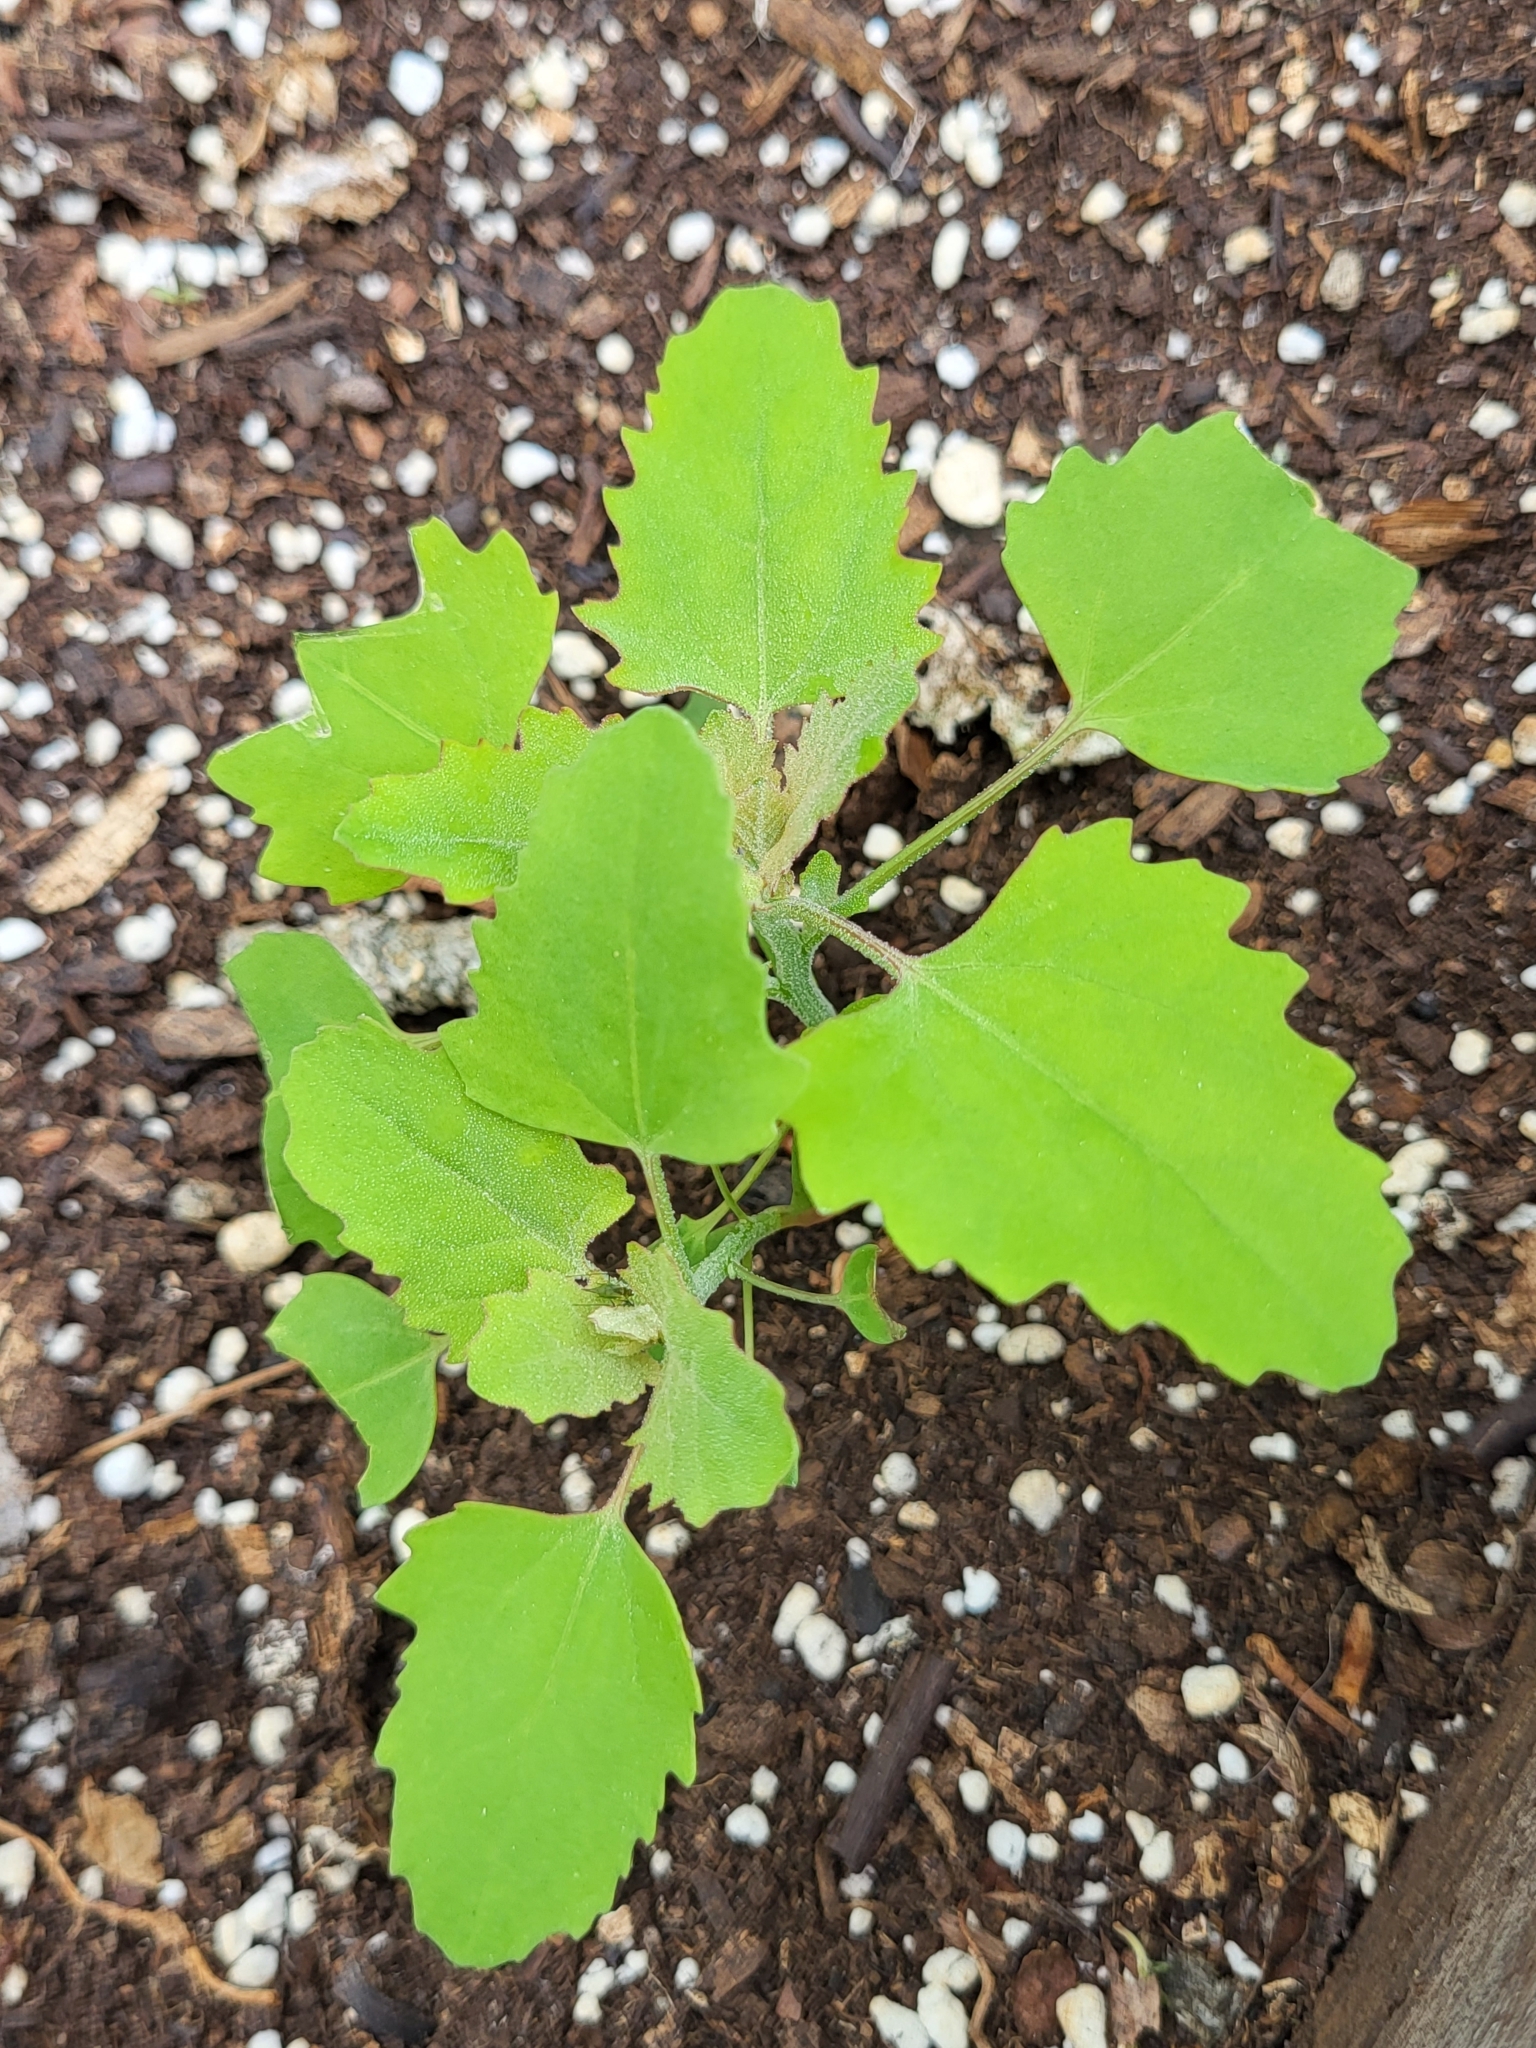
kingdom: Plantae
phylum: Tracheophyta
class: Magnoliopsida
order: Caryophyllales
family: Amaranthaceae
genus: Chenopodium
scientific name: Chenopodium album
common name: Fat-hen
